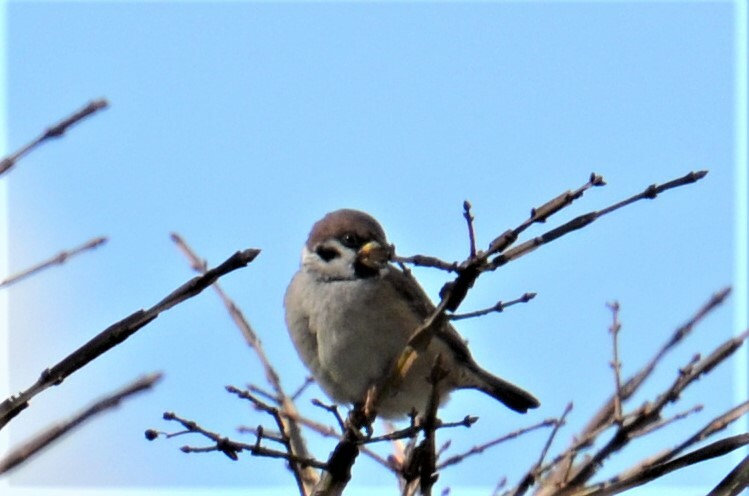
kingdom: Animalia
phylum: Chordata
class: Aves
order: Passeriformes
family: Passeridae
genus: Passer
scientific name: Passer montanus
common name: Eurasian tree sparrow
